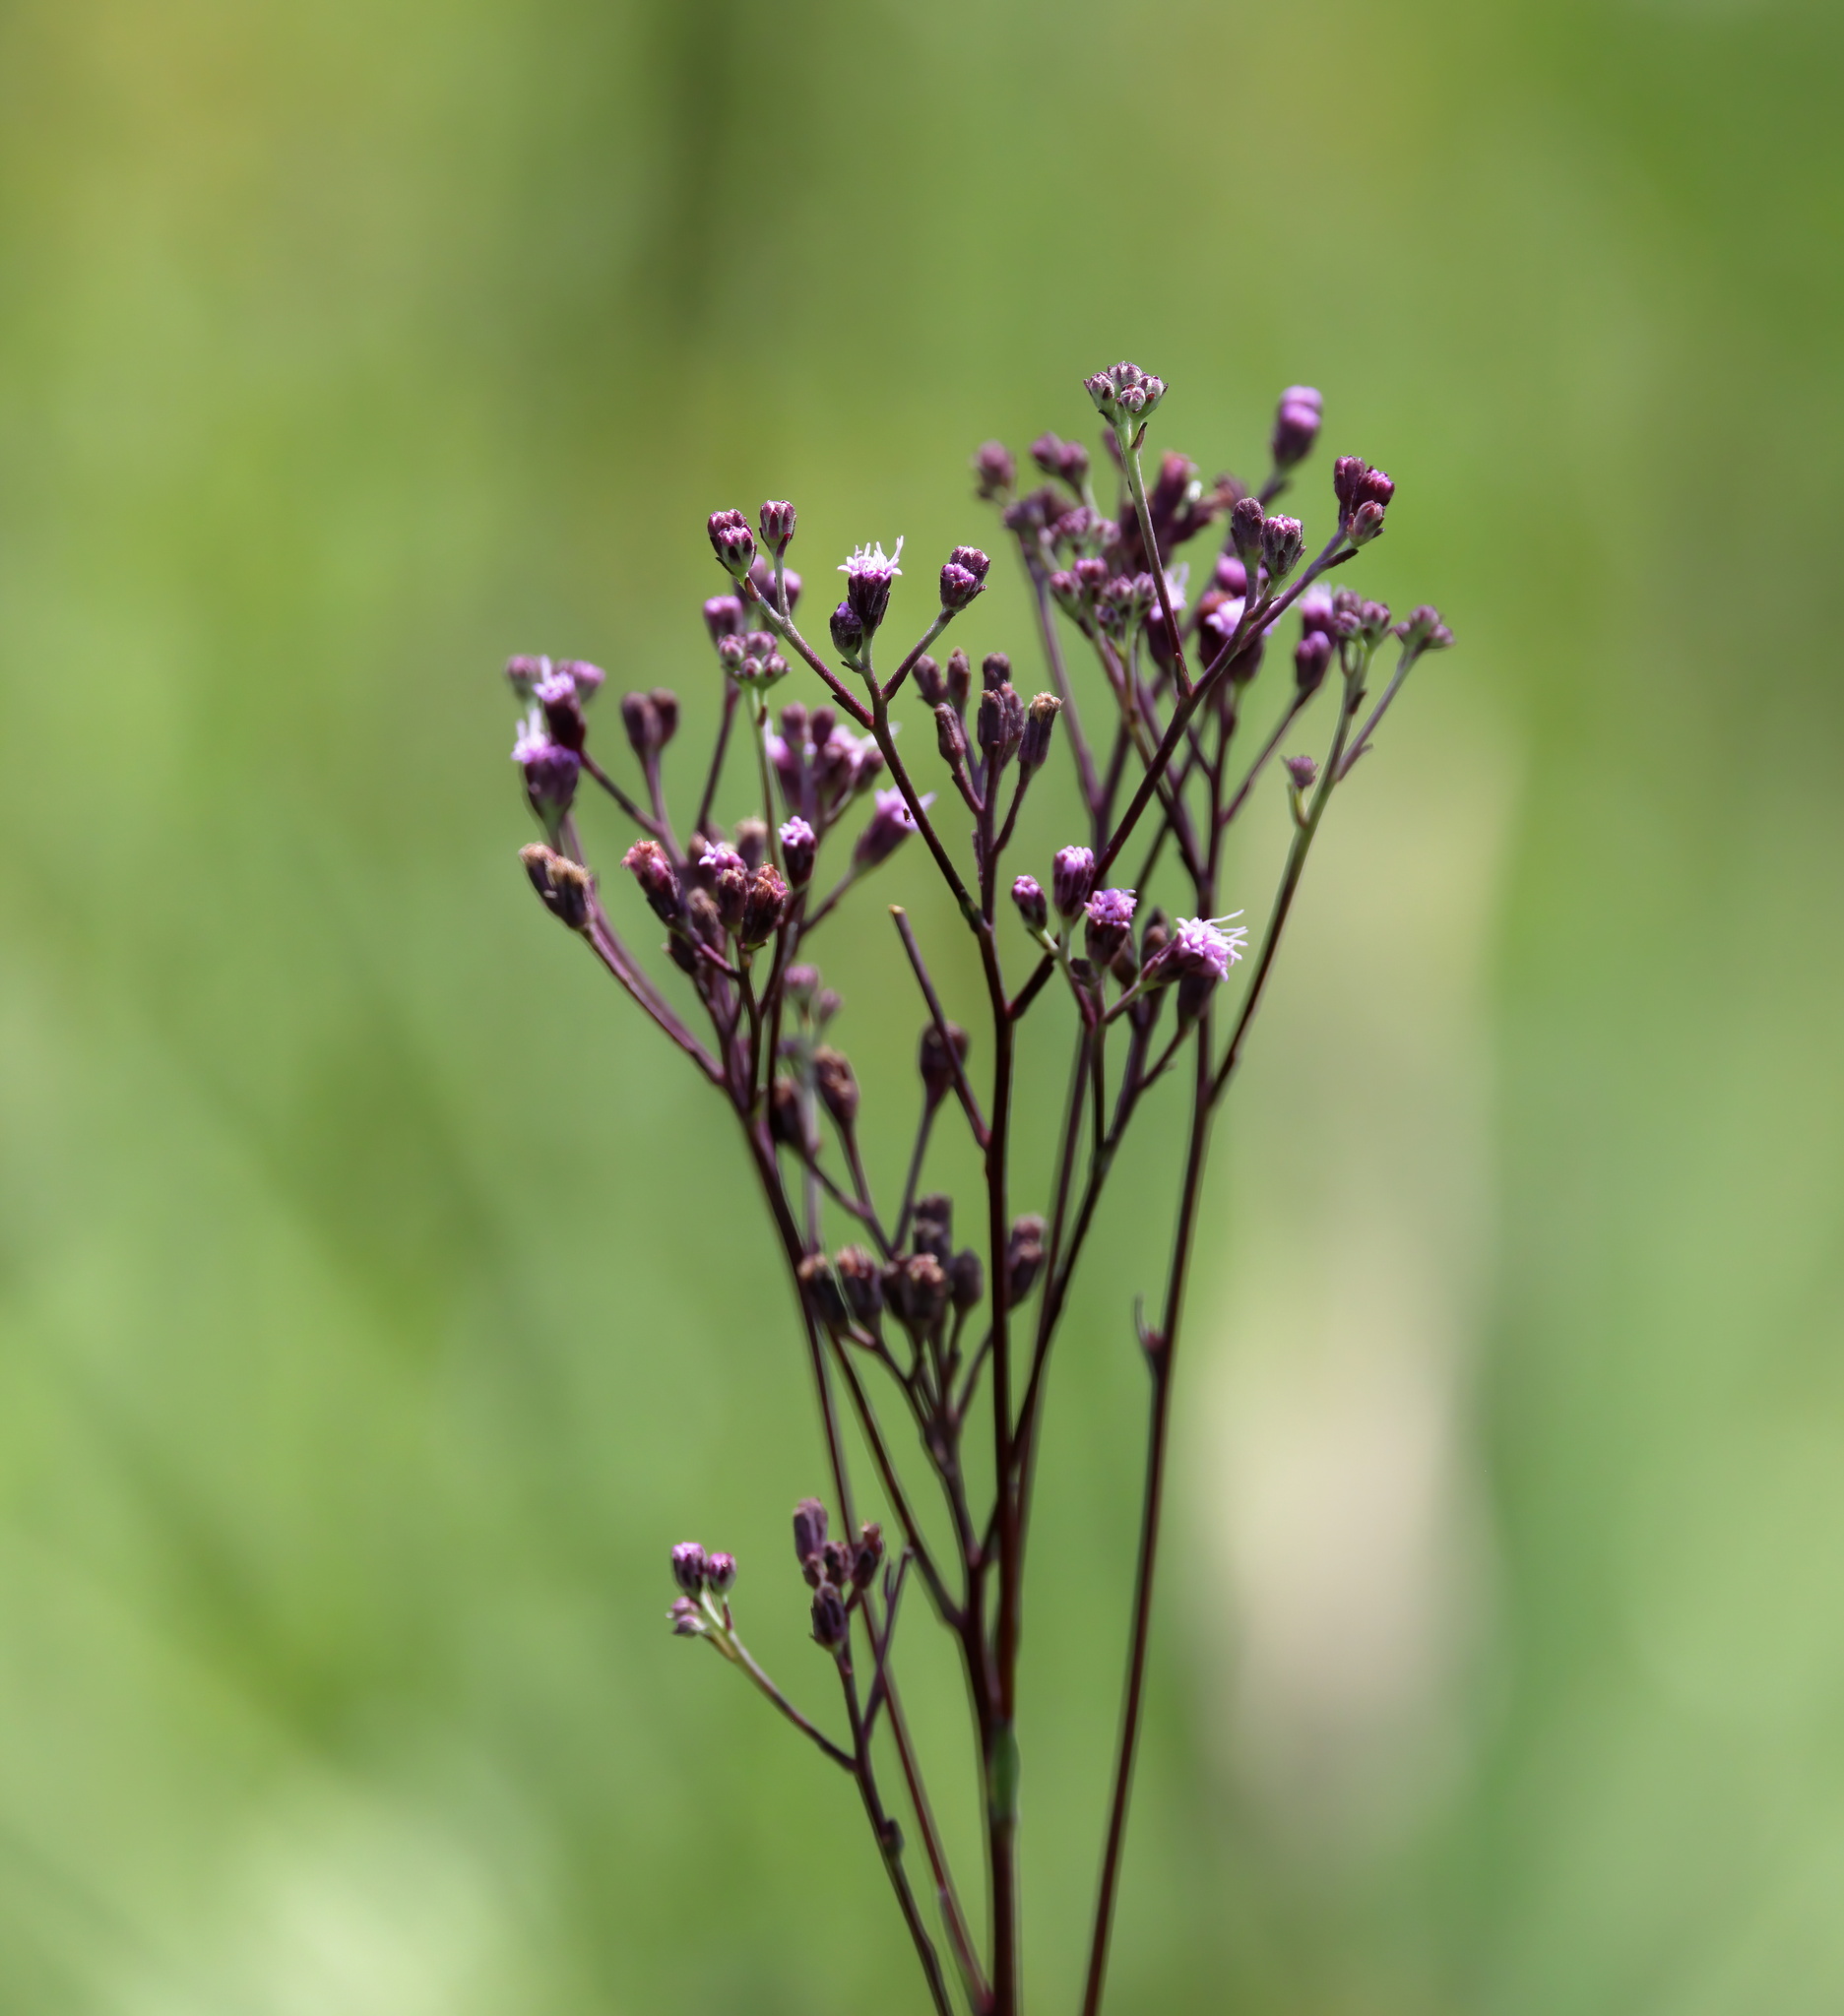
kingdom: Plantae
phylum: Tracheophyta
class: Magnoliopsida
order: Asterales
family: Asteraceae
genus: Carphephorus
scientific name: Carphephorus odoratissimus
